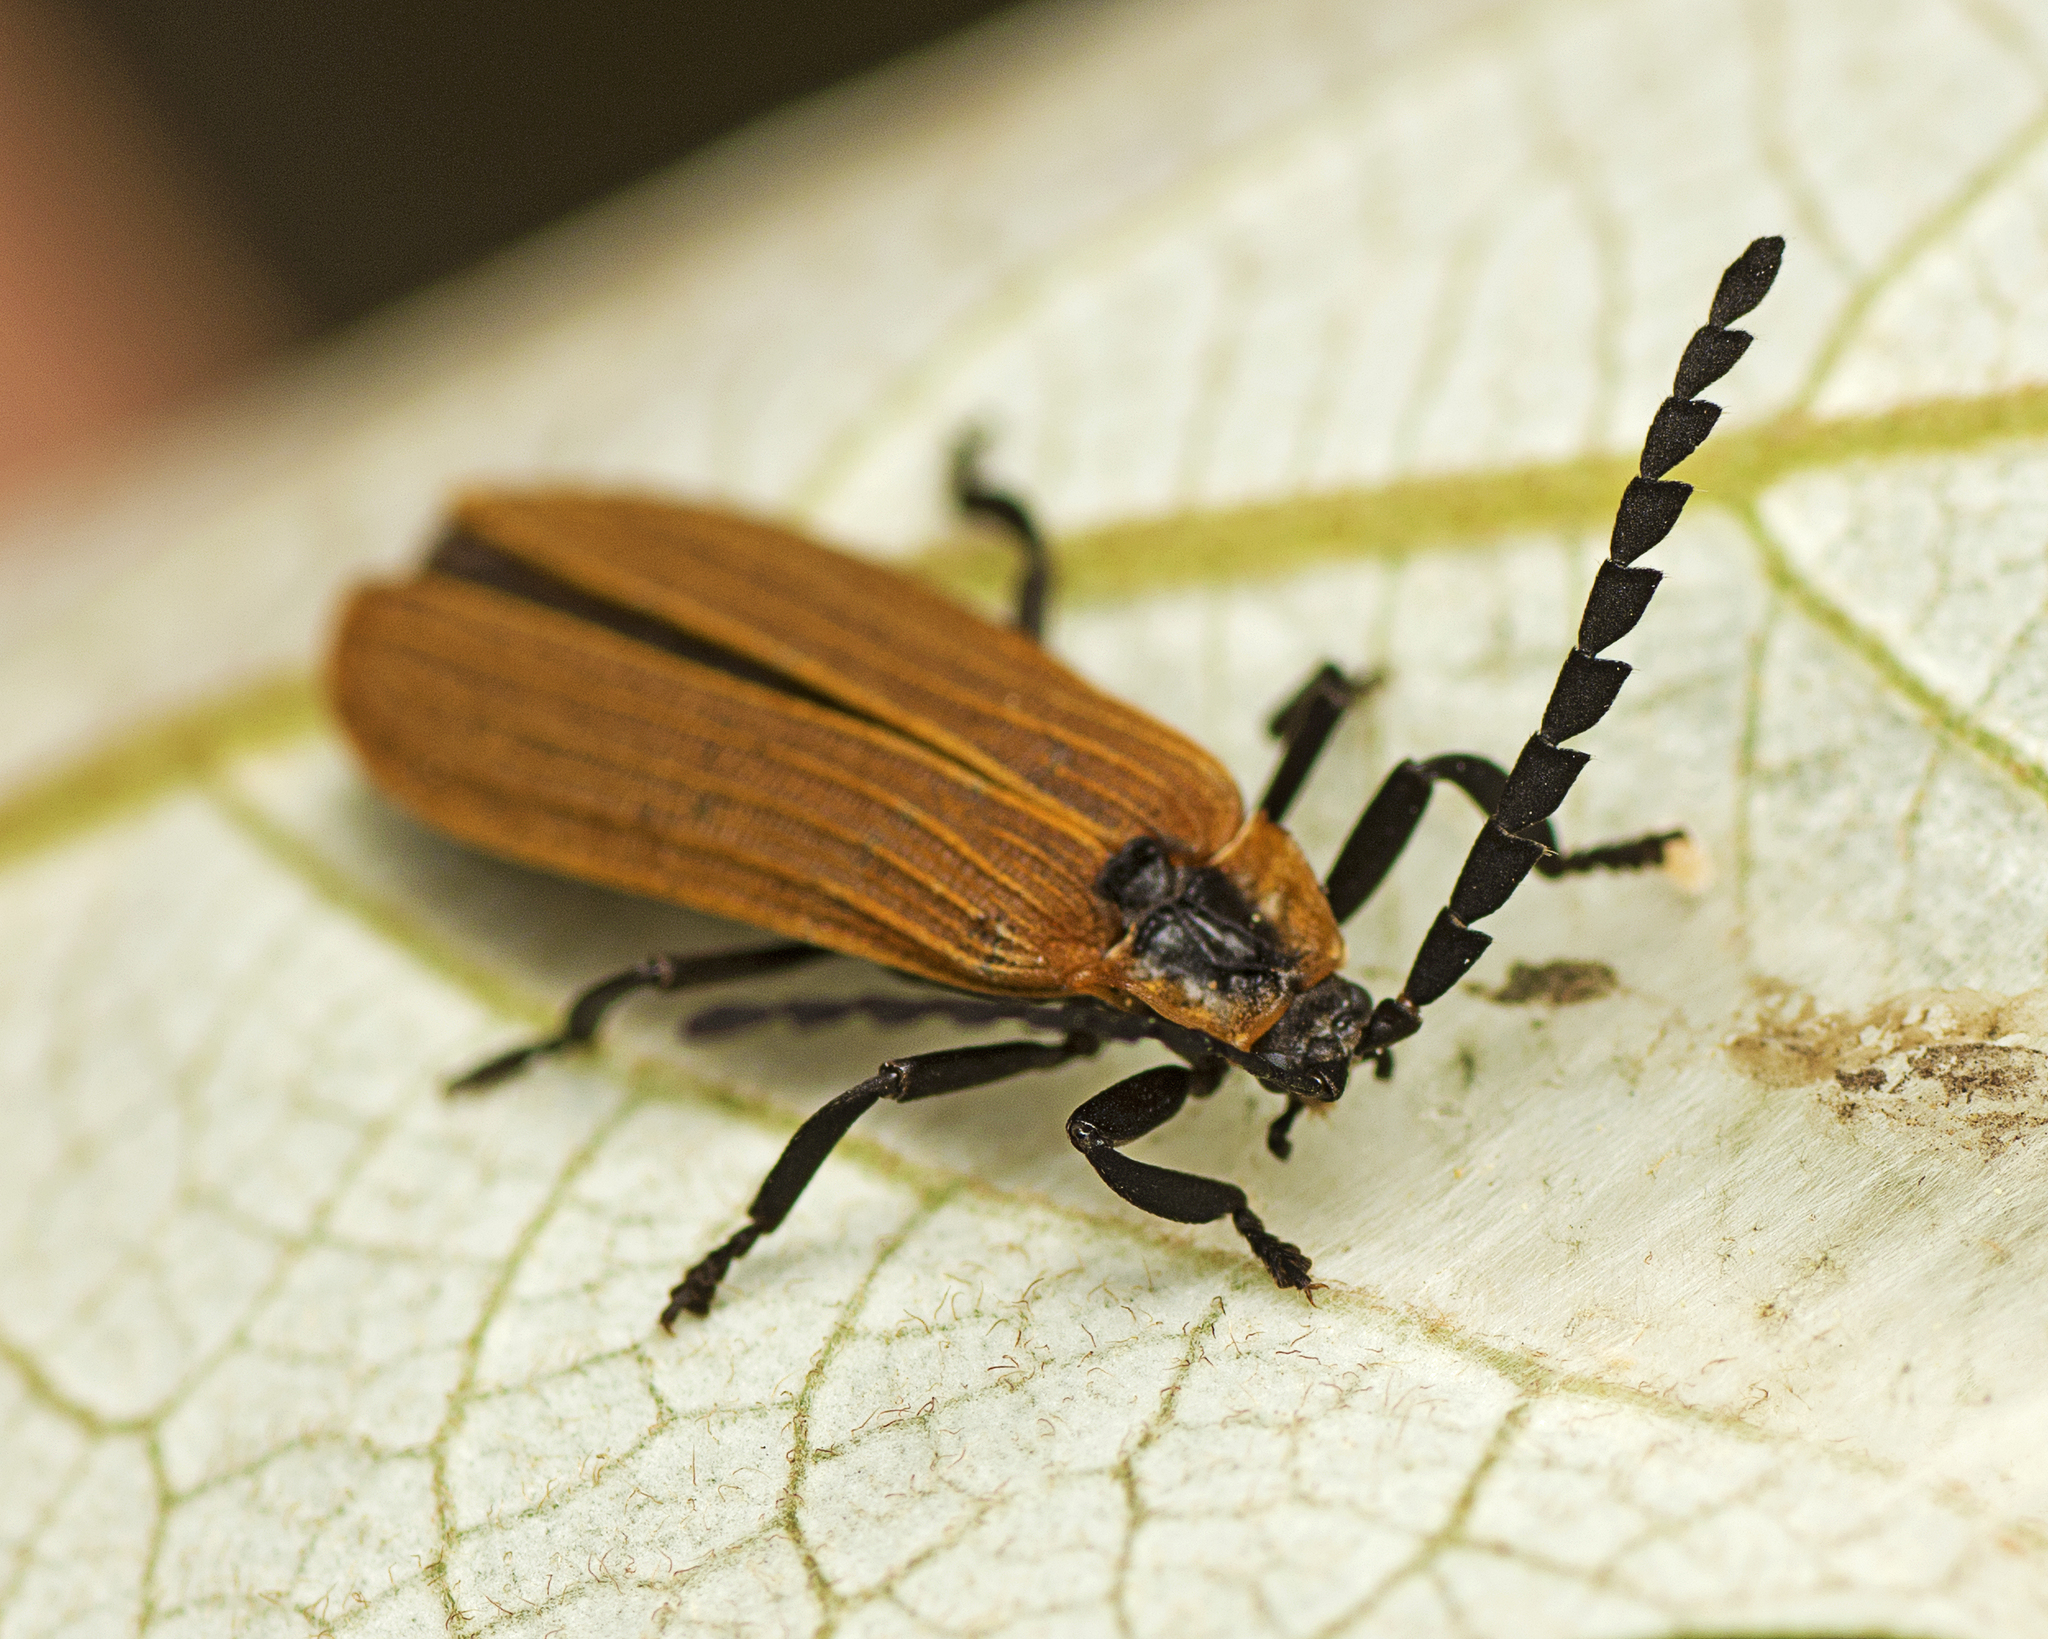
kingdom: Animalia
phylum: Arthropoda
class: Insecta
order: Coleoptera
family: Lycidae
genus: Trichalus
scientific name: Trichalus
